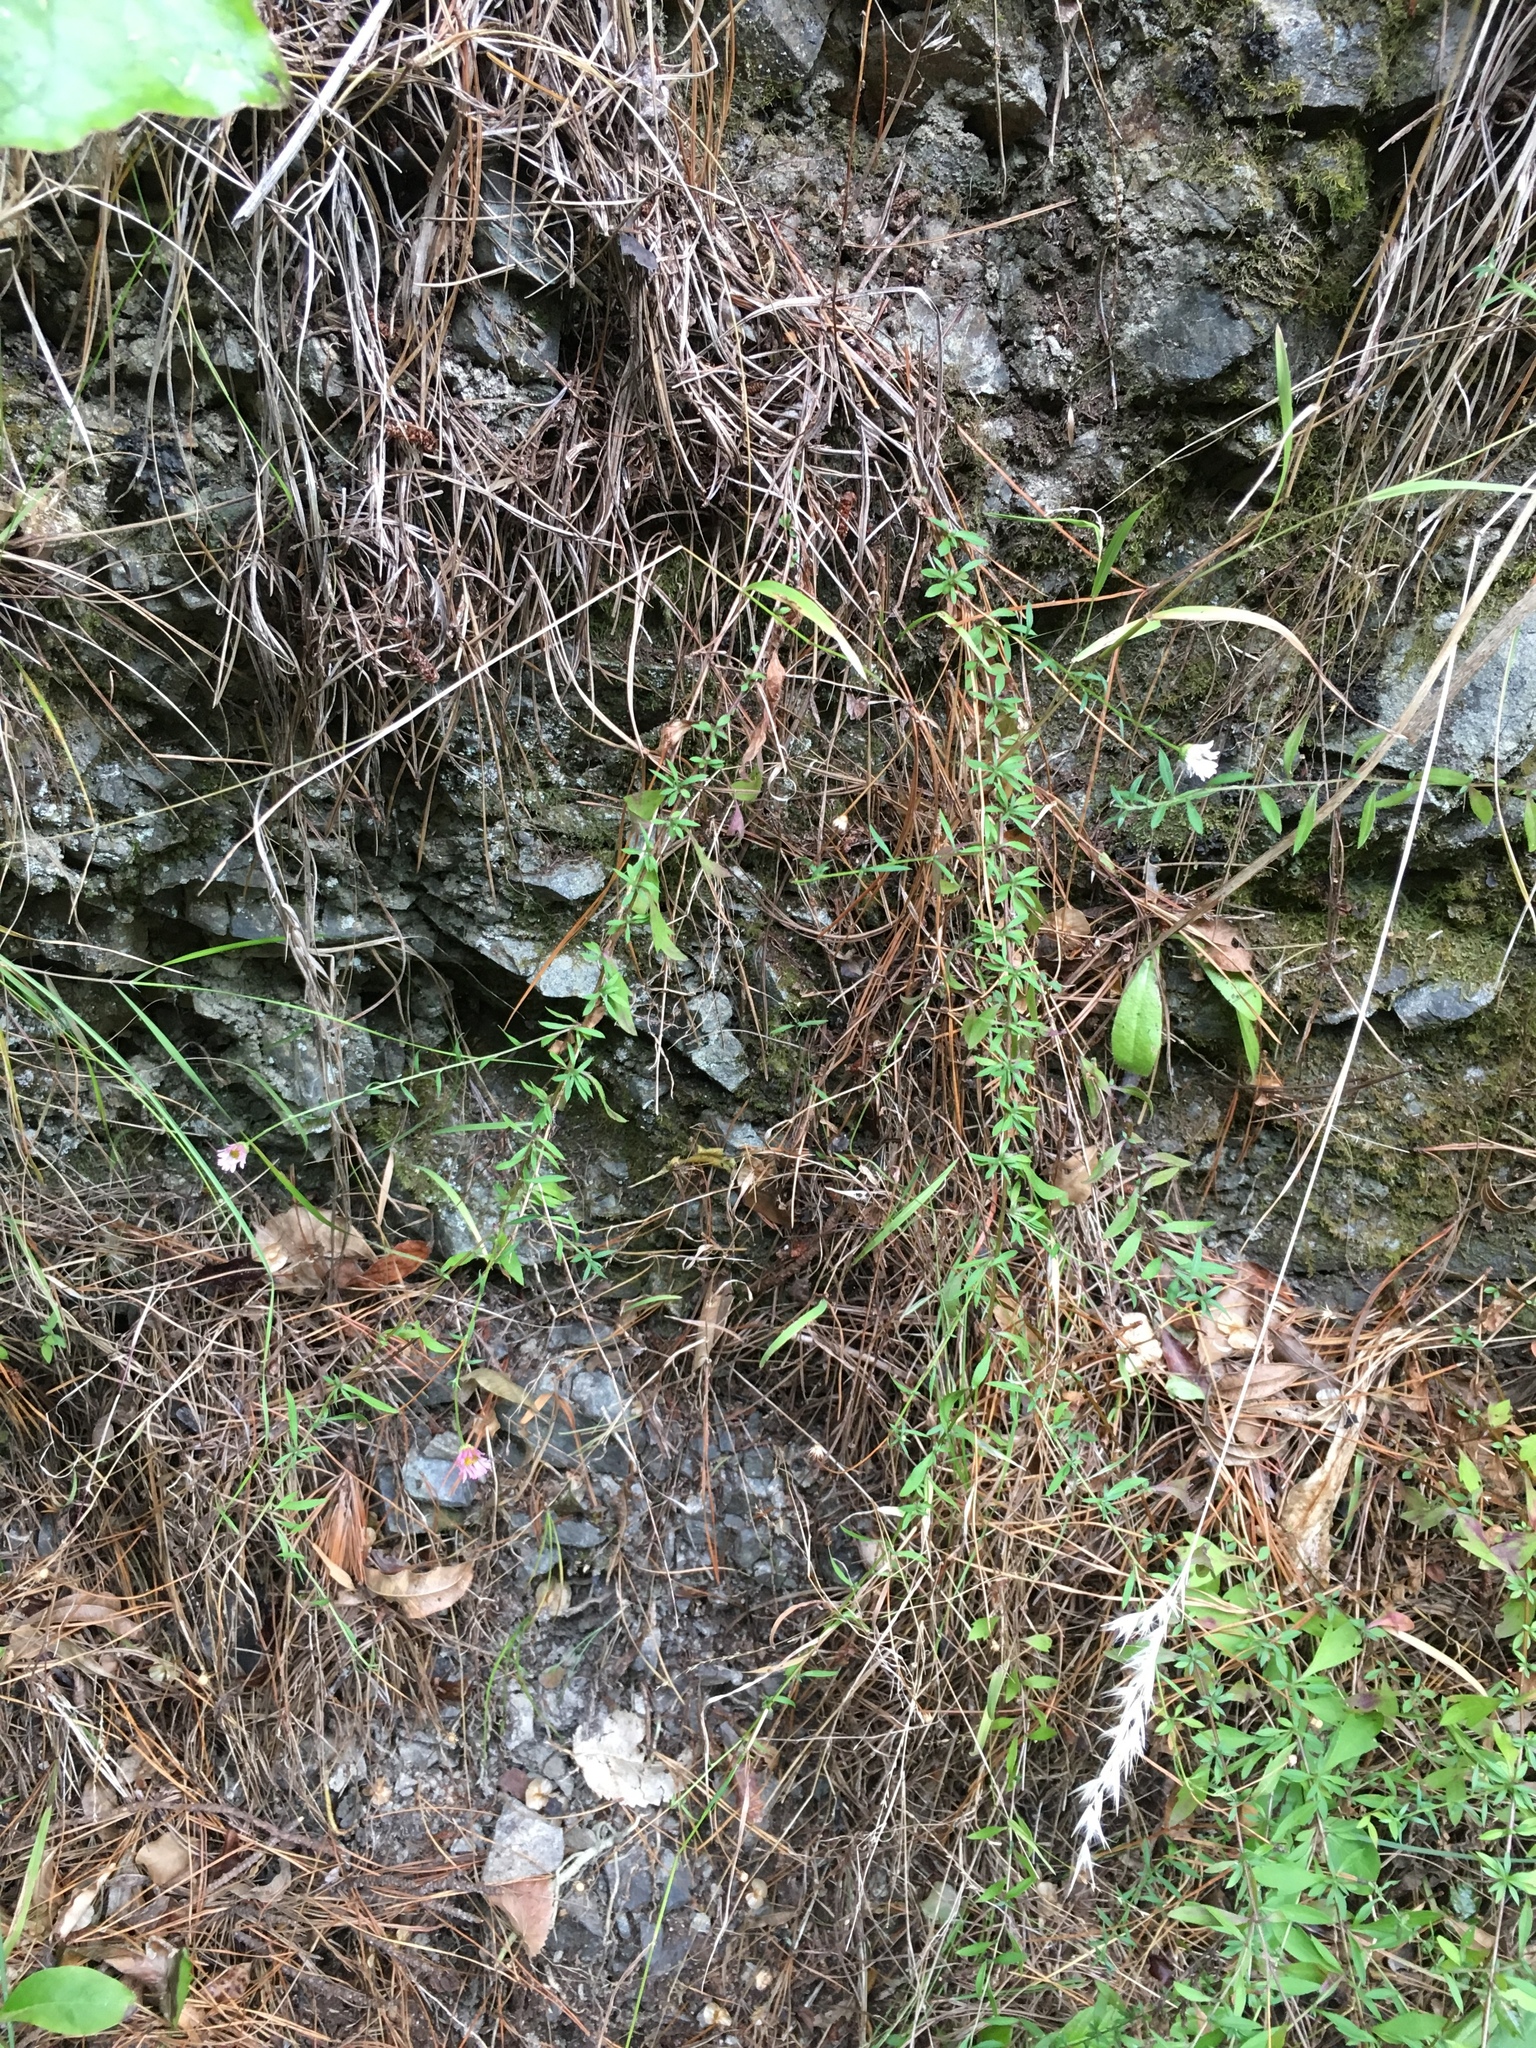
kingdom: Plantae
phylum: Tracheophyta
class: Magnoliopsida
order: Asterales
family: Asteraceae
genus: Erigeron
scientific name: Erigeron karvinskianus
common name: Mexican fleabane
